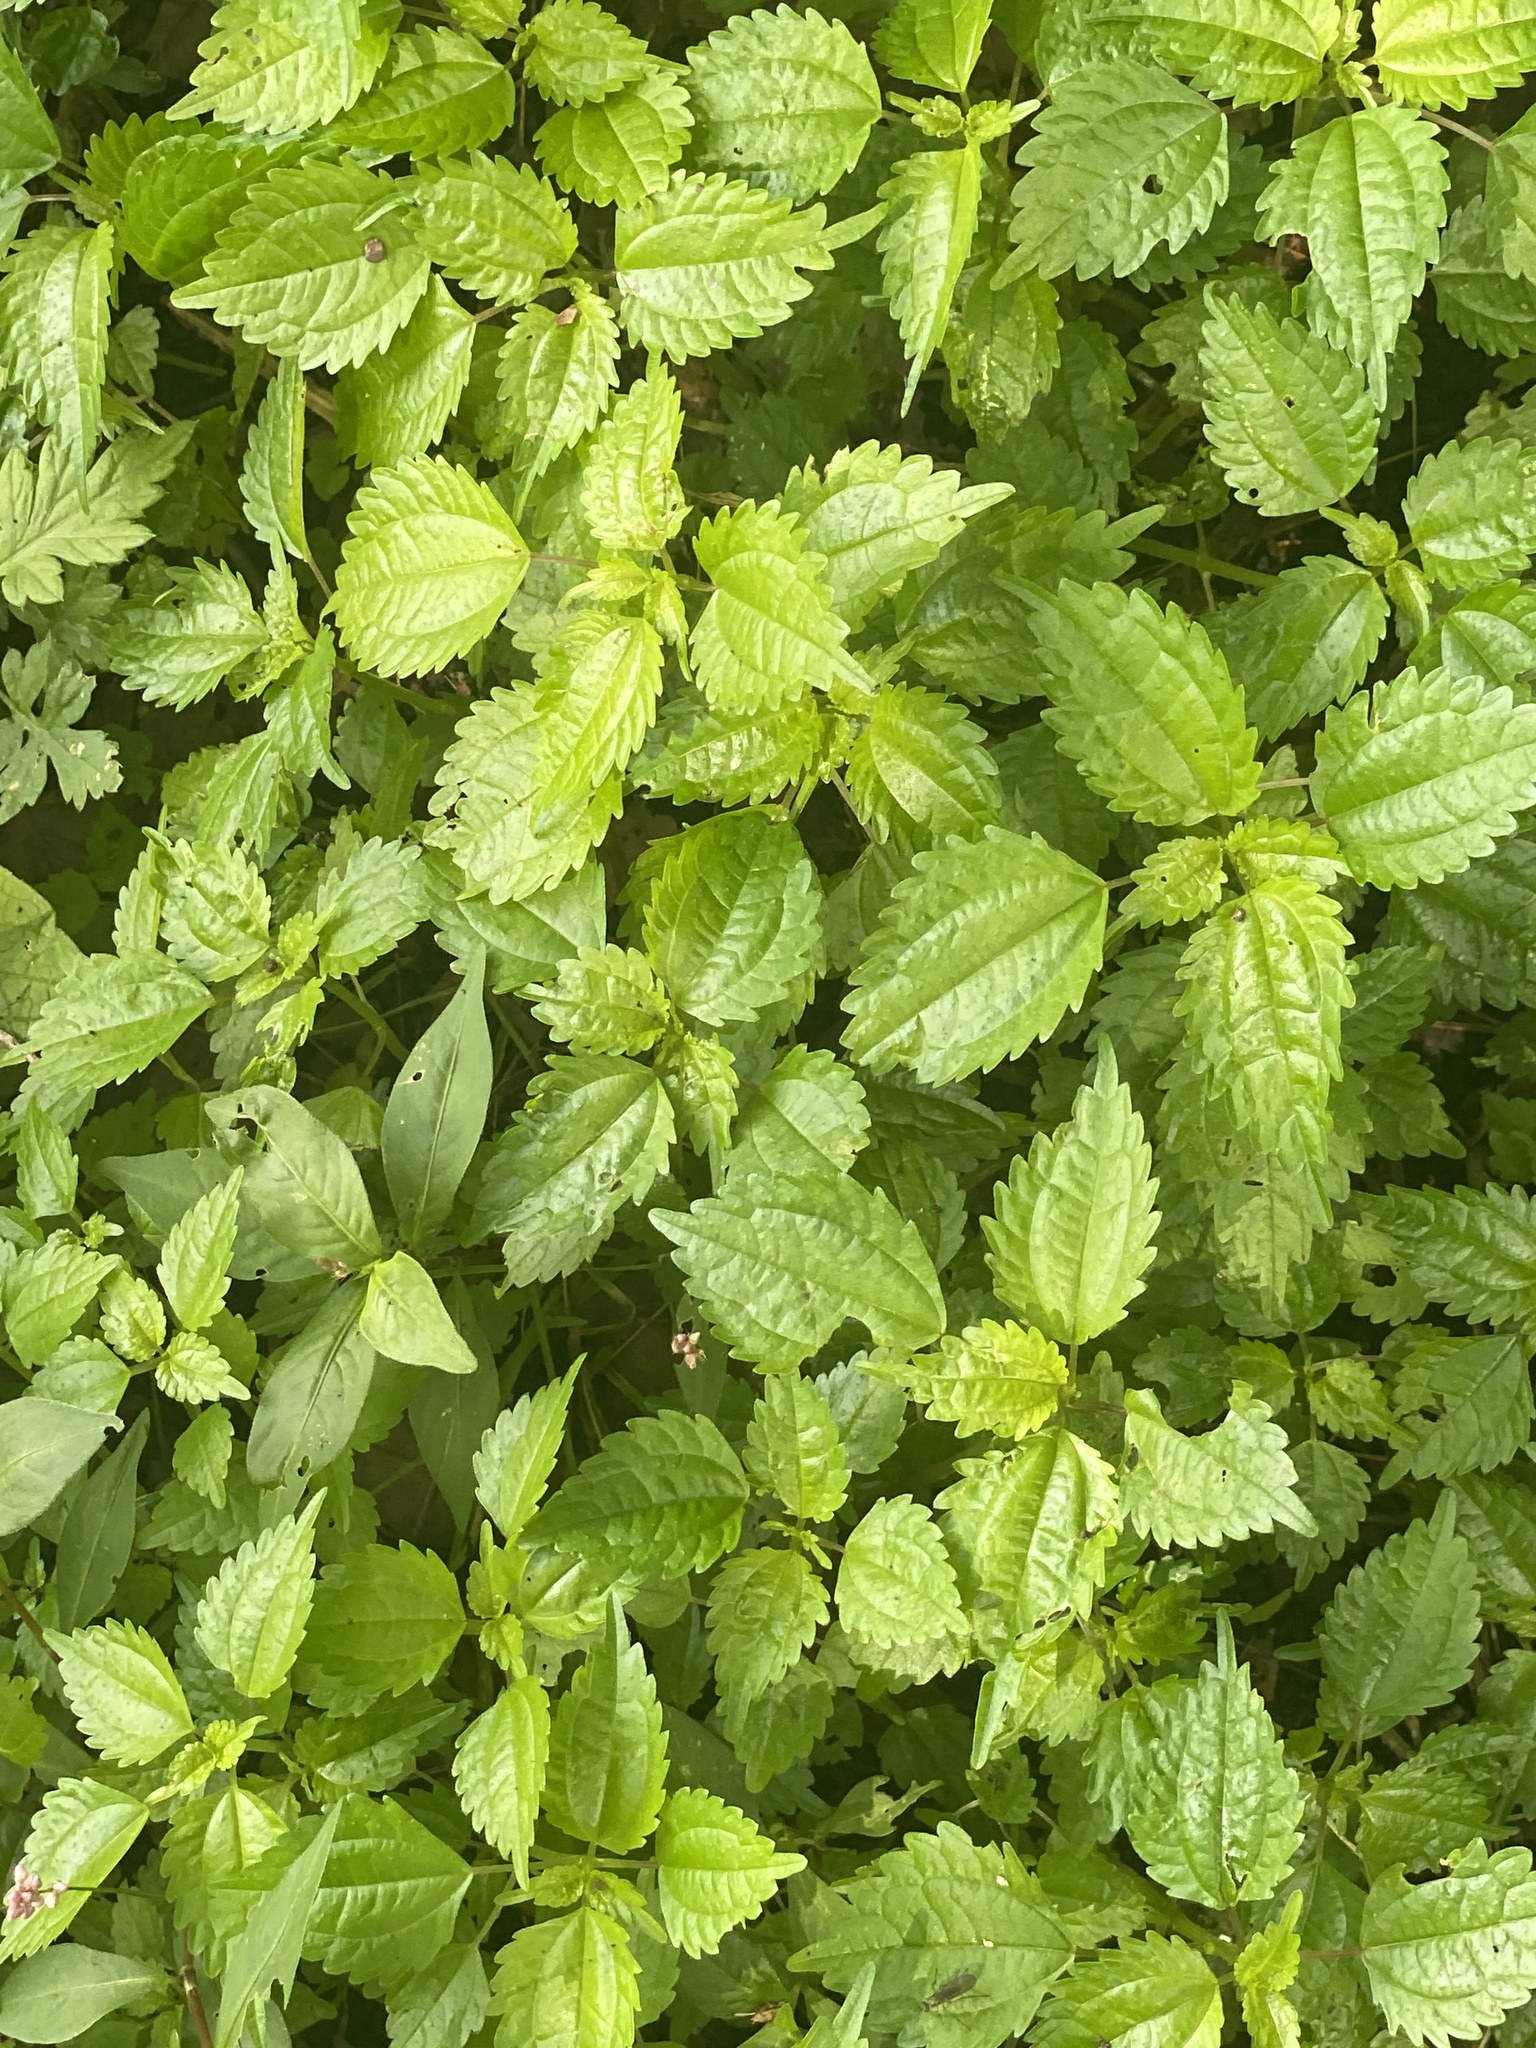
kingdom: Plantae
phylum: Tracheophyta
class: Magnoliopsida
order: Rosales
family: Urticaceae
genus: Pilea
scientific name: Pilea pumila
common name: Clearweed
